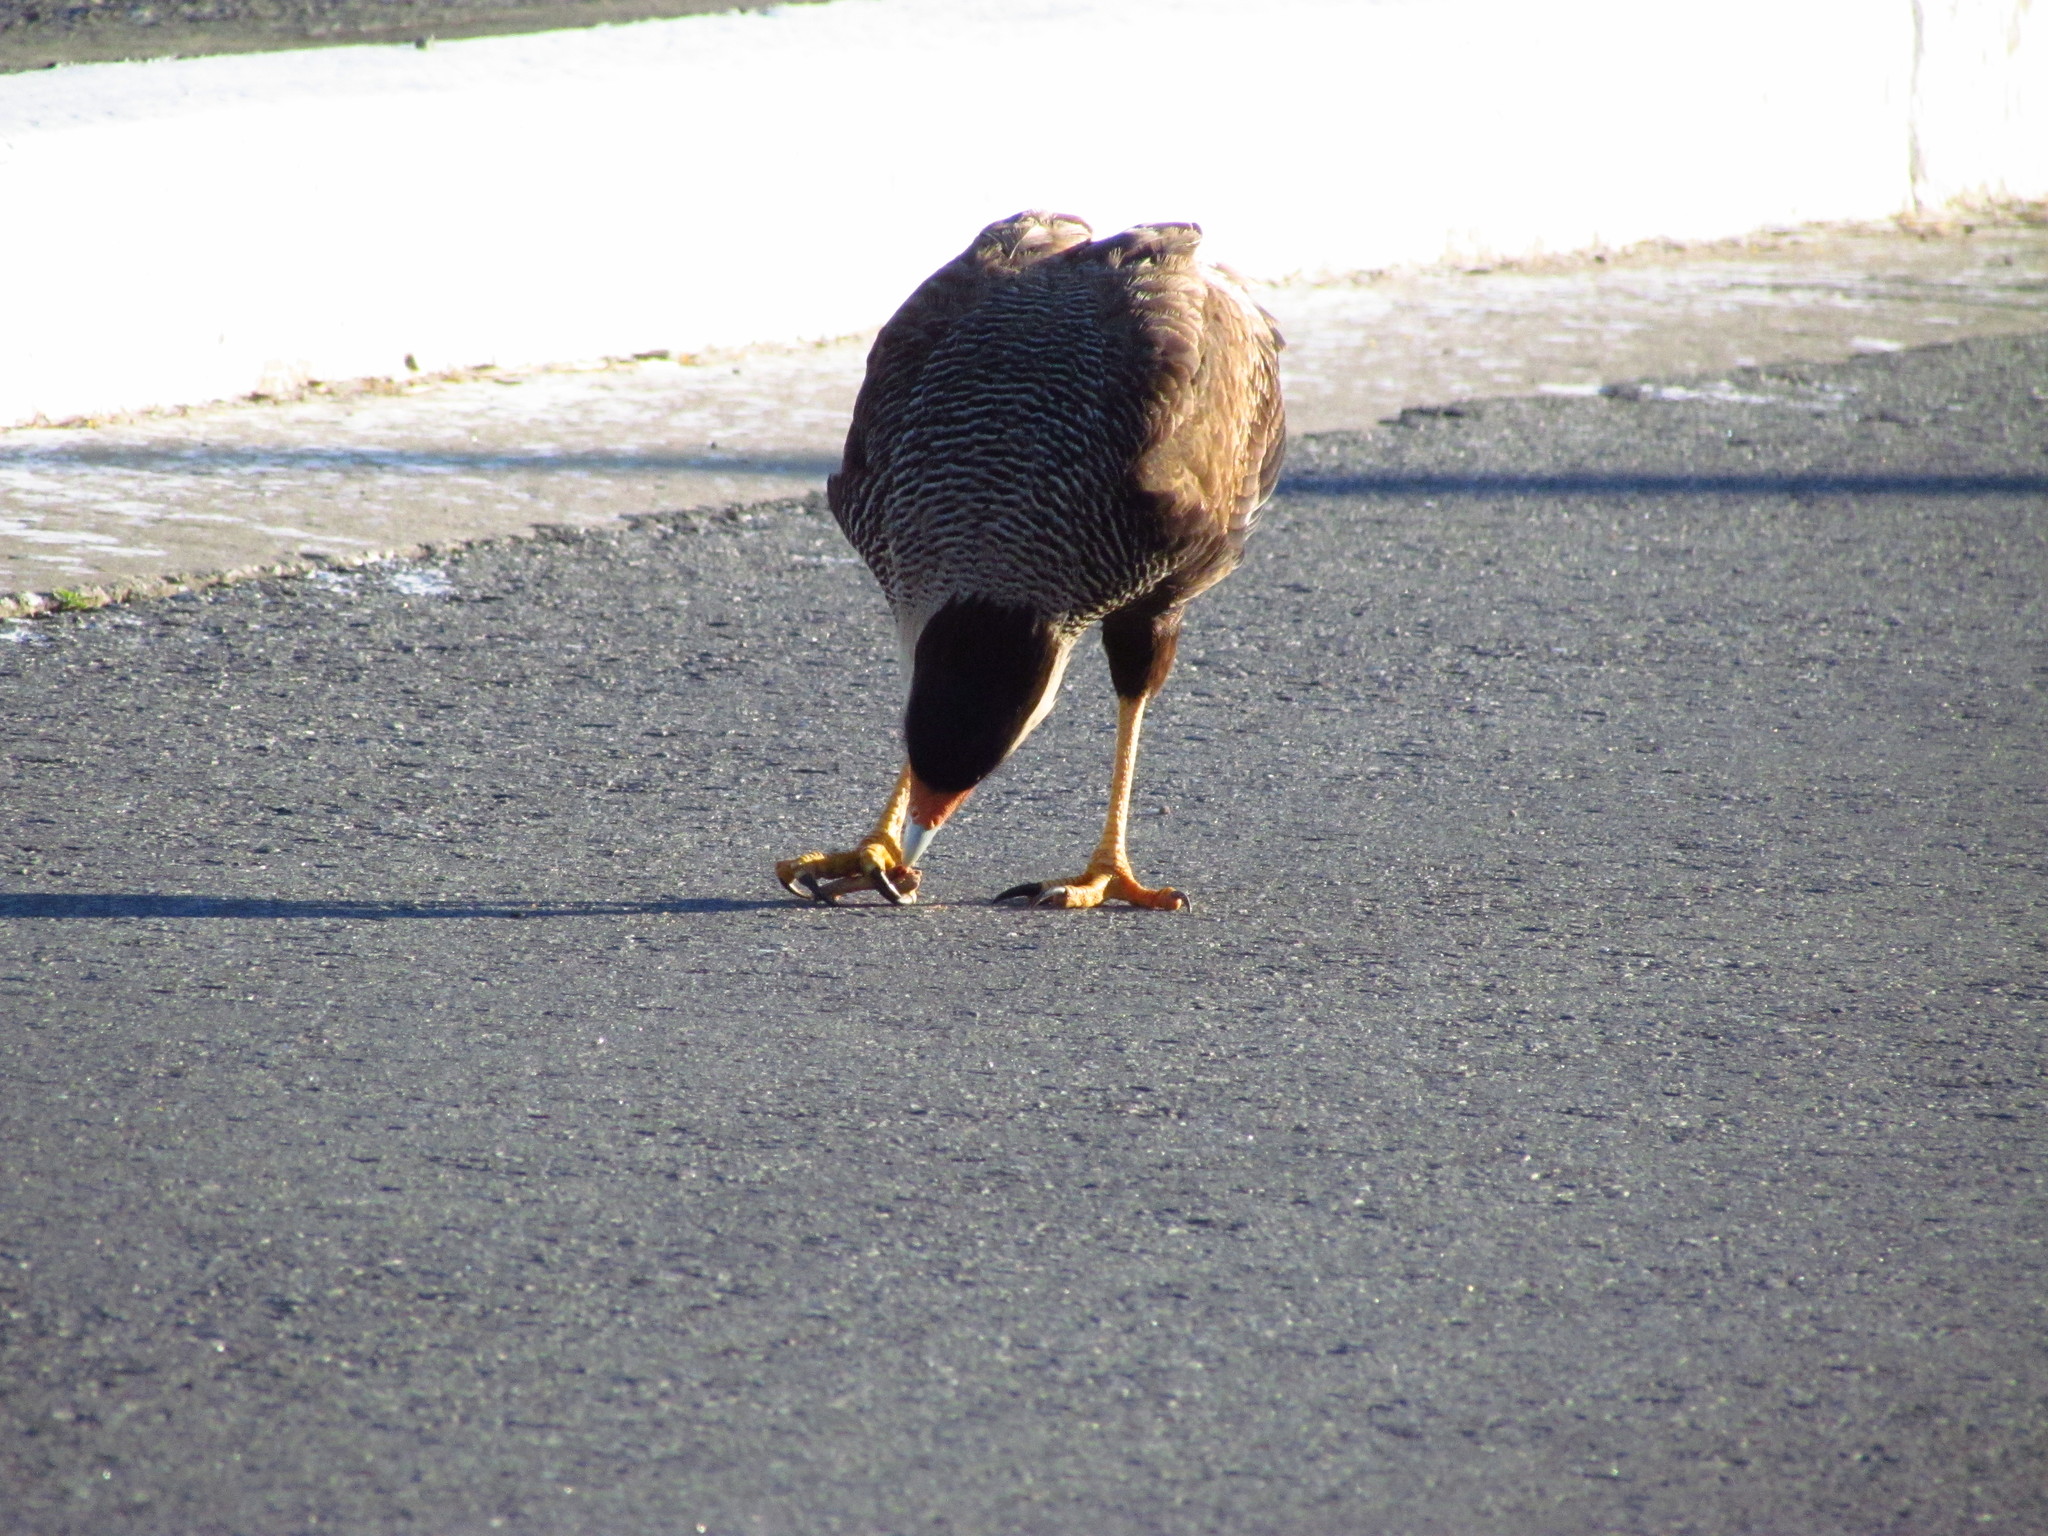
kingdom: Animalia
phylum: Chordata
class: Aves
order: Falconiformes
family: Falconidae
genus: Caracara
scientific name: Caracara plancus
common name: Southern caracara
